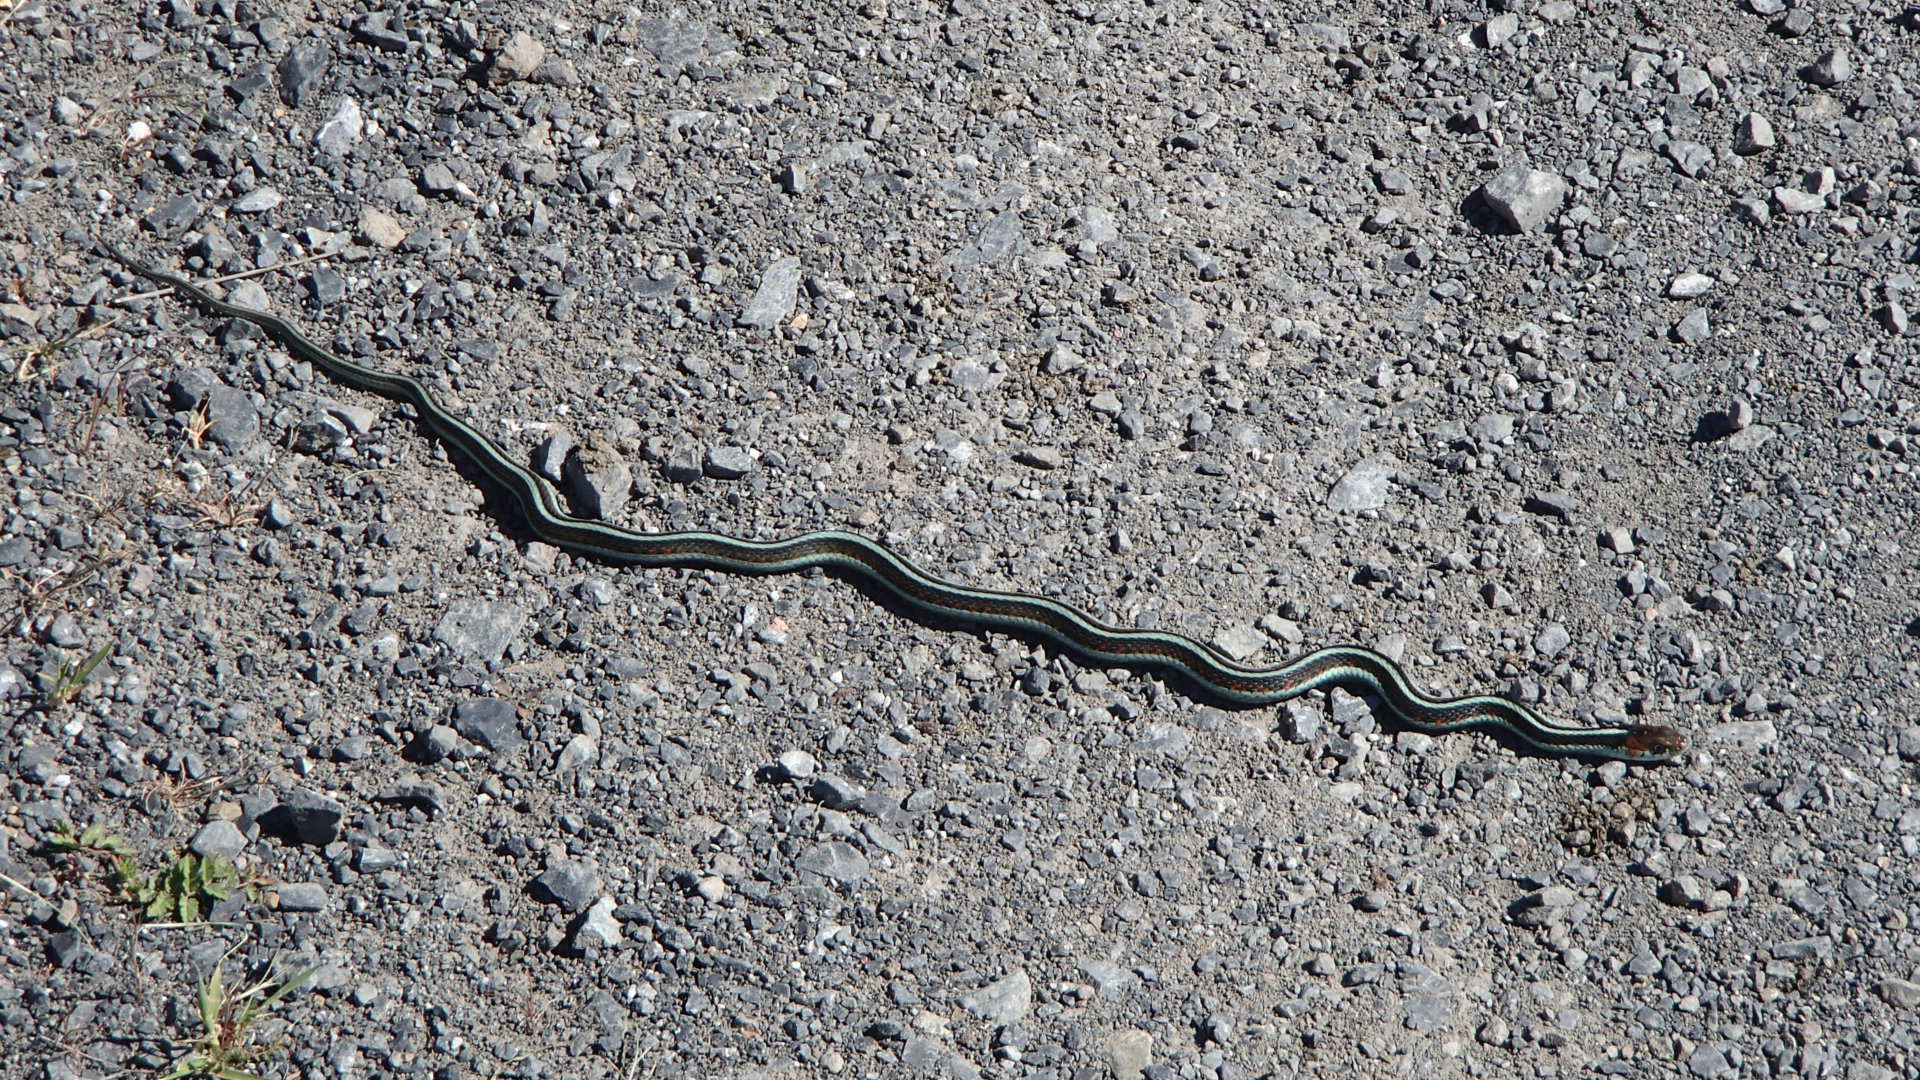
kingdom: Animalia
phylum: Chordata
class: Squamata
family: Colubridae
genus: Thamnophis
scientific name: Thamnophis sirtalis
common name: Common garter snake
